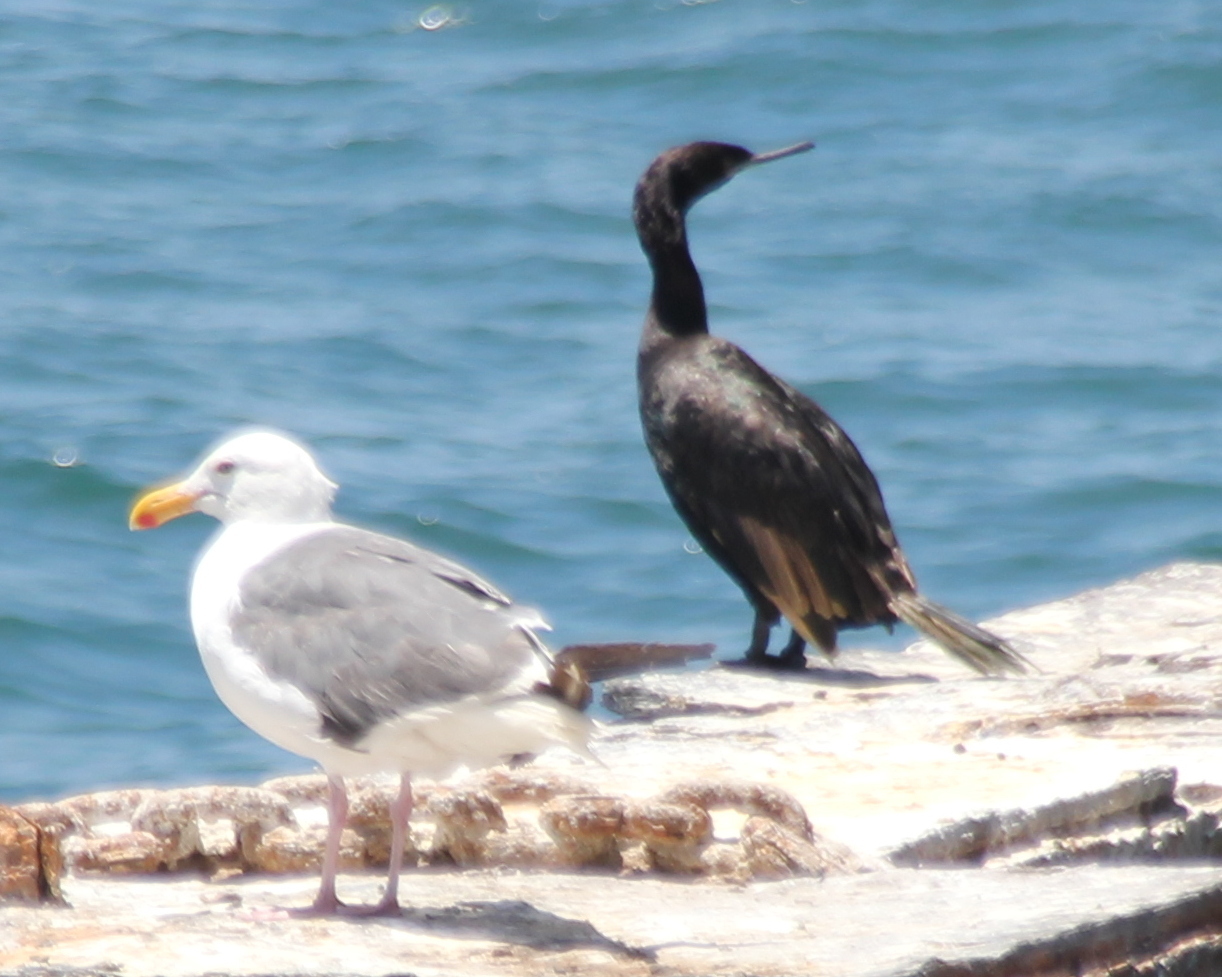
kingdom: Animalia
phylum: Chordata
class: Aves
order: Suliformes
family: Phalacrocoracidae
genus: Phalacrocorax
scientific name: Phalacrocorax pelagicus
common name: Pelagic cormorant
